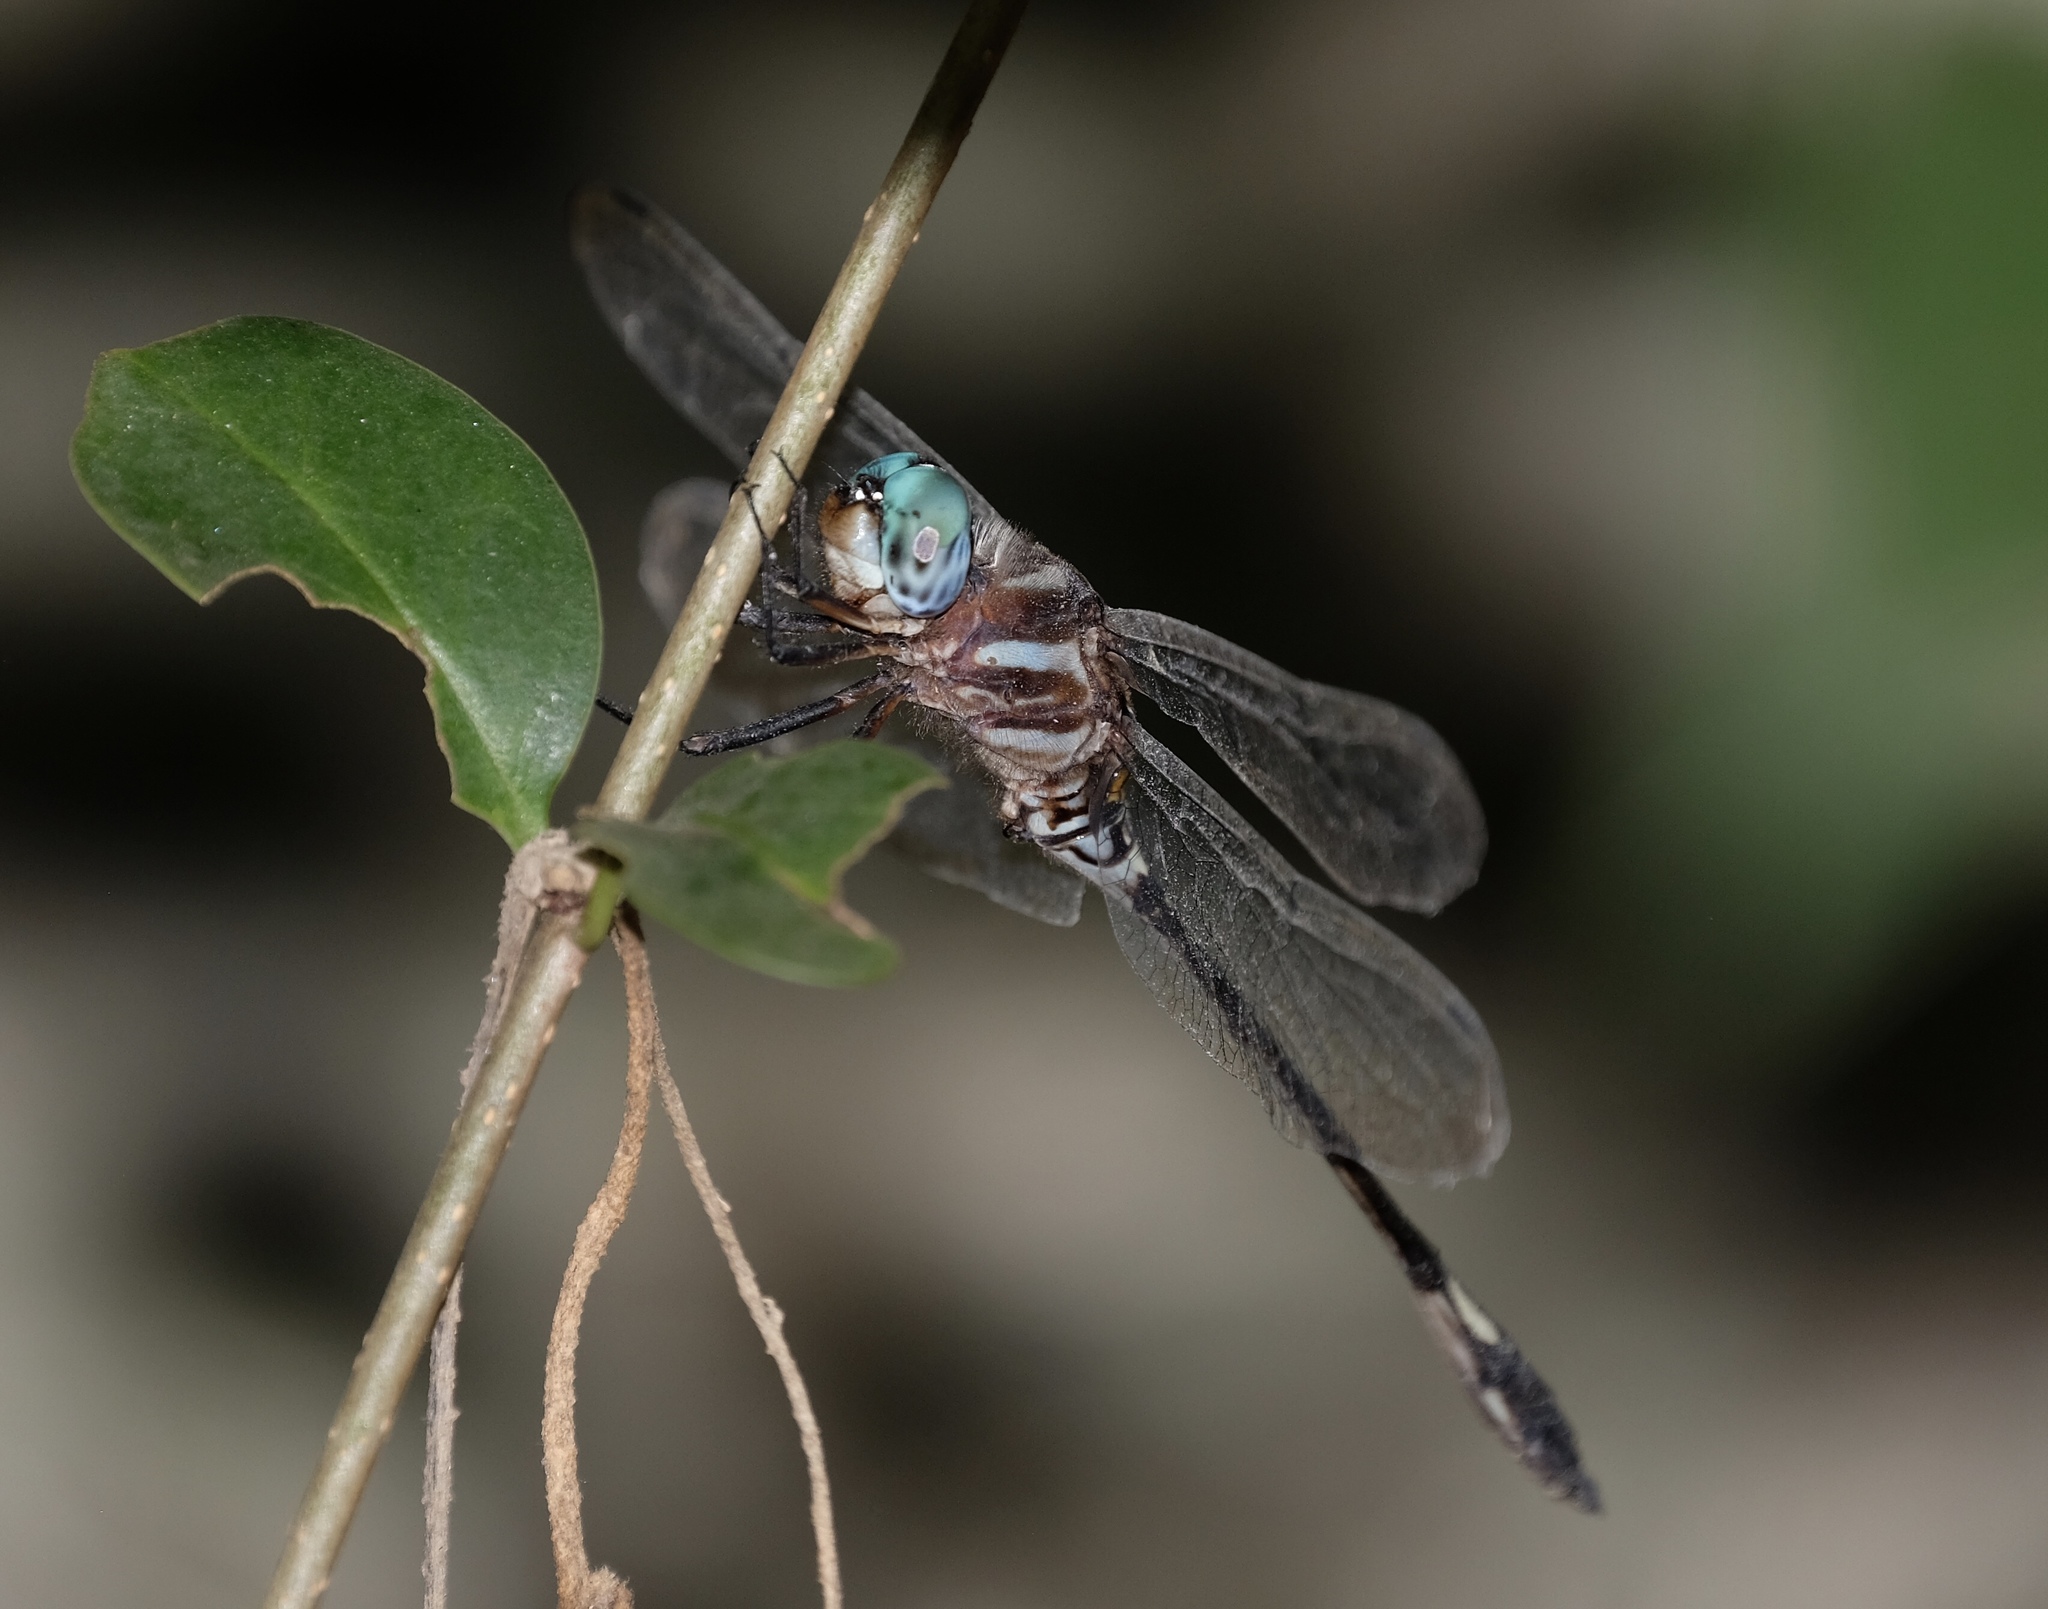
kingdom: Animalia
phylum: Arthropoda
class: Insecta
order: Odonata
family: Libellulidae
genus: Brechmorhoga
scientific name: Brechmorhoga mendax
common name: Pale-faced clubskimmer
